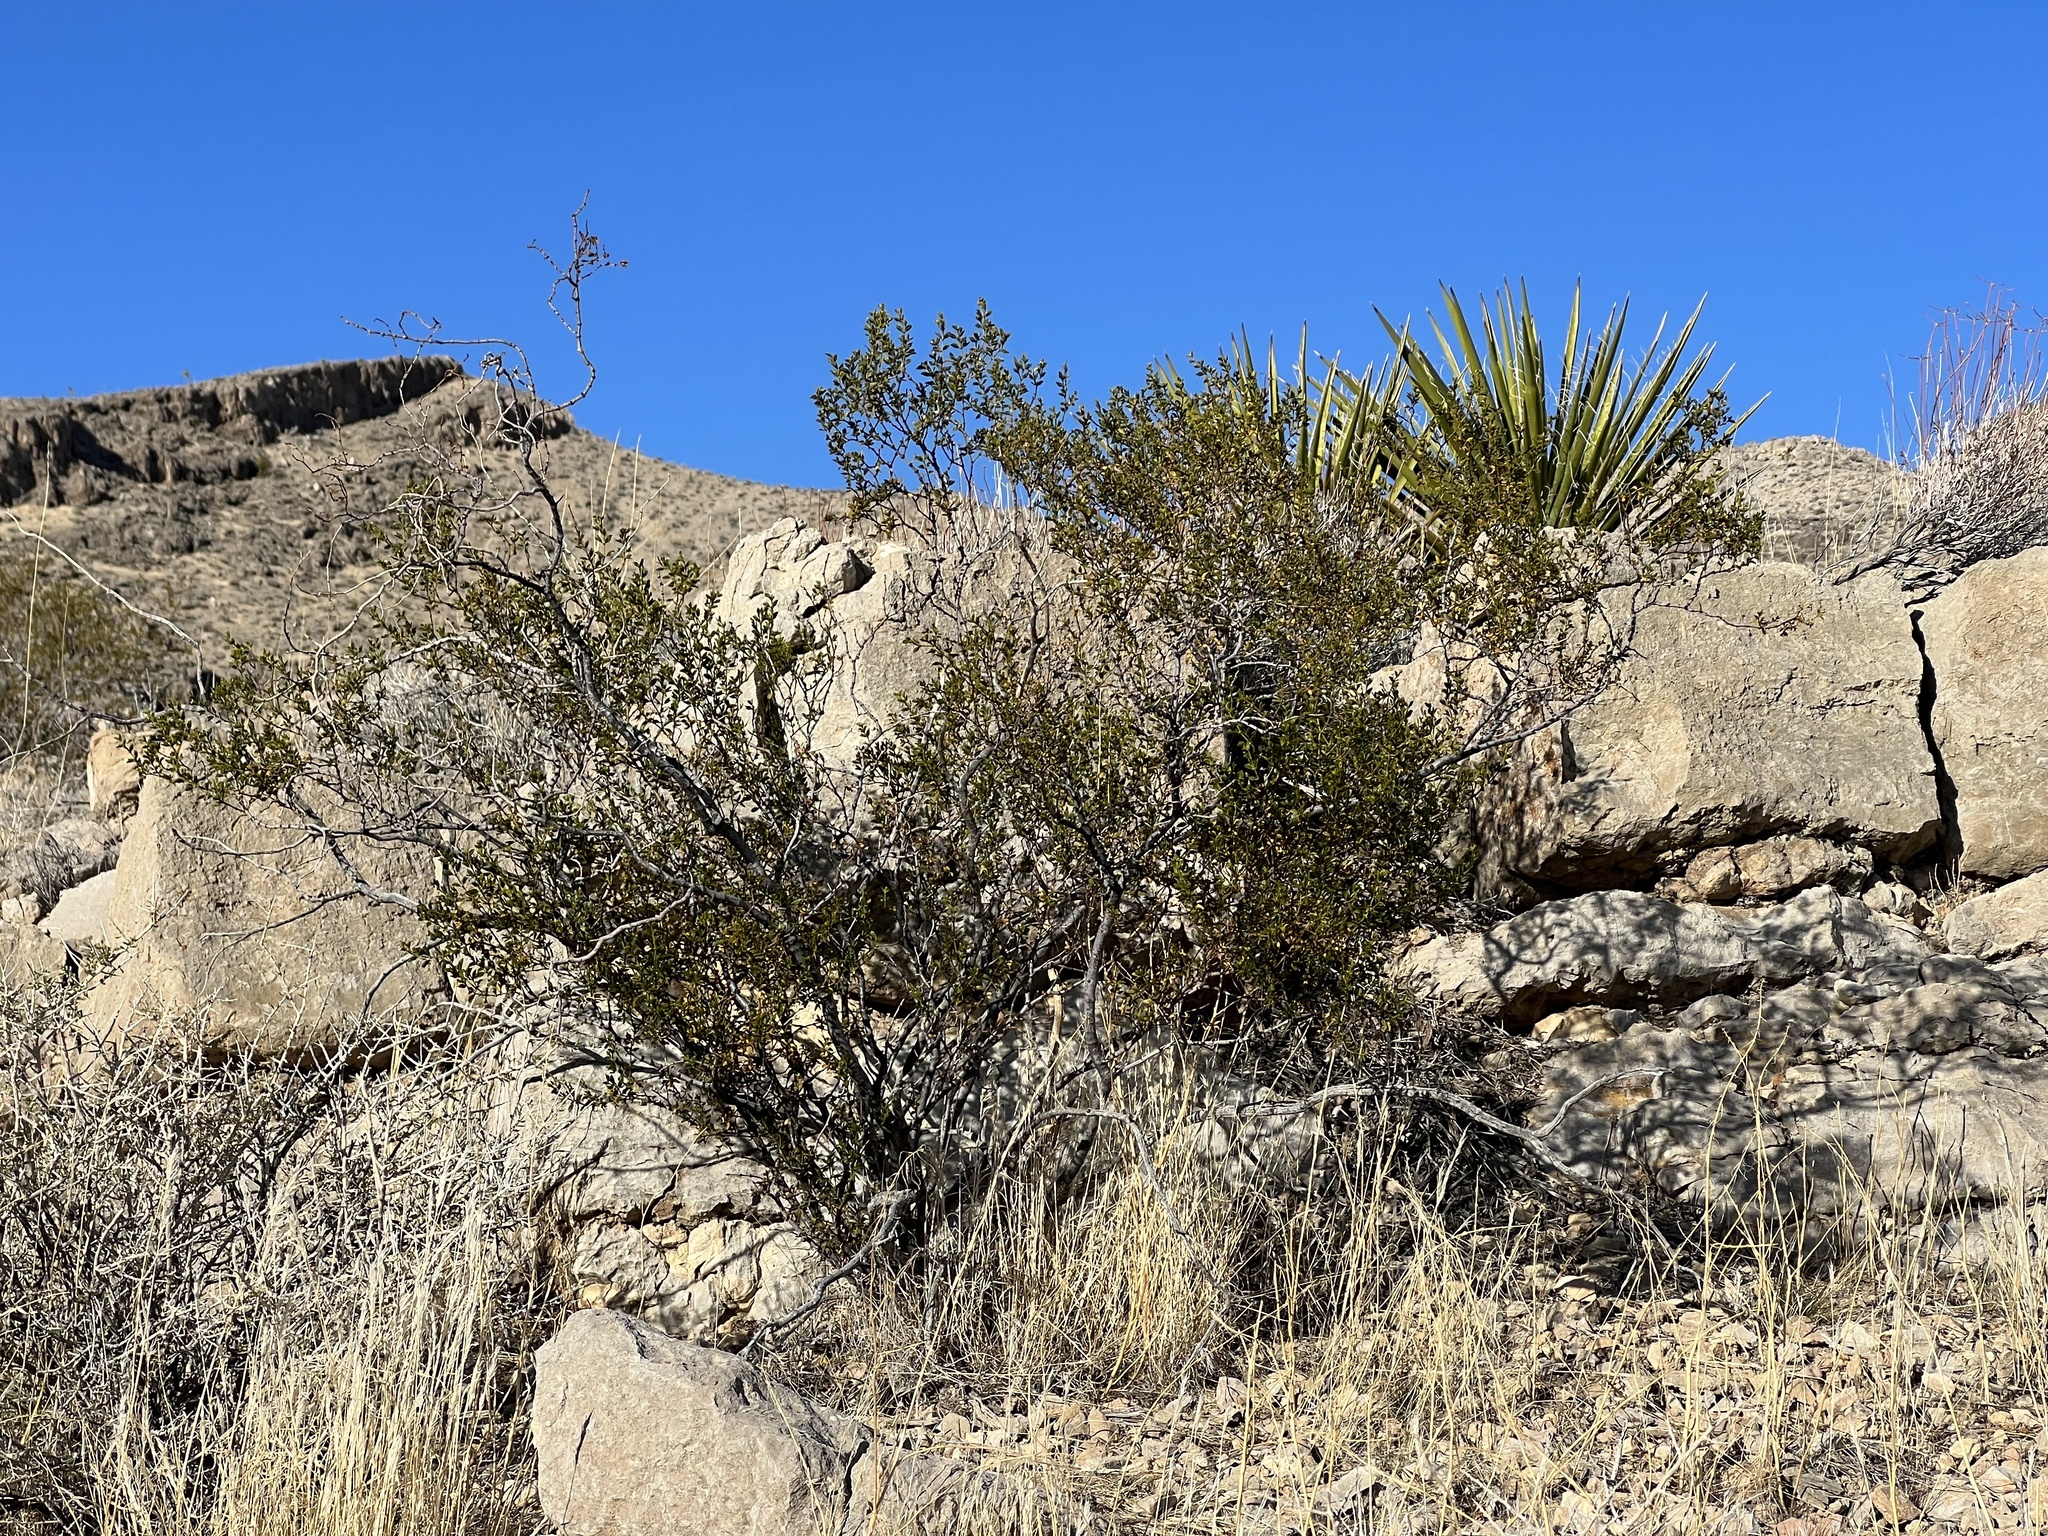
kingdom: Plantae
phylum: Tracheophyta
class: Magnoliopsida
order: Zygophyllales
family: Zygophyllaceae
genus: Larrea
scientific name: Larrea tridentata
